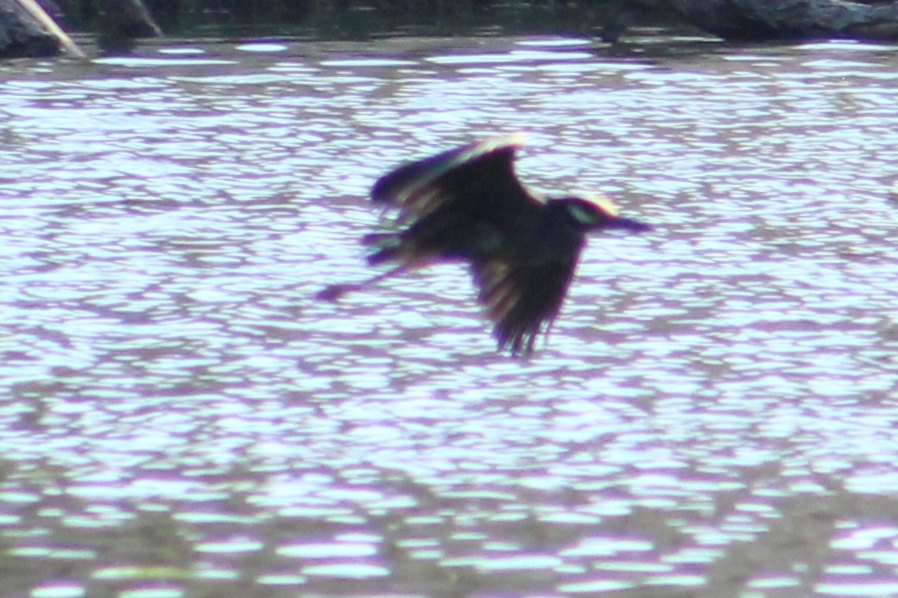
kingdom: Animalia
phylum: Chordata
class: Aves
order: Pelecaniformes
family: Ardeidae
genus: Nyctanassa
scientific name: Nyctanassa violacea
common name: Yellow-crowned night heron
